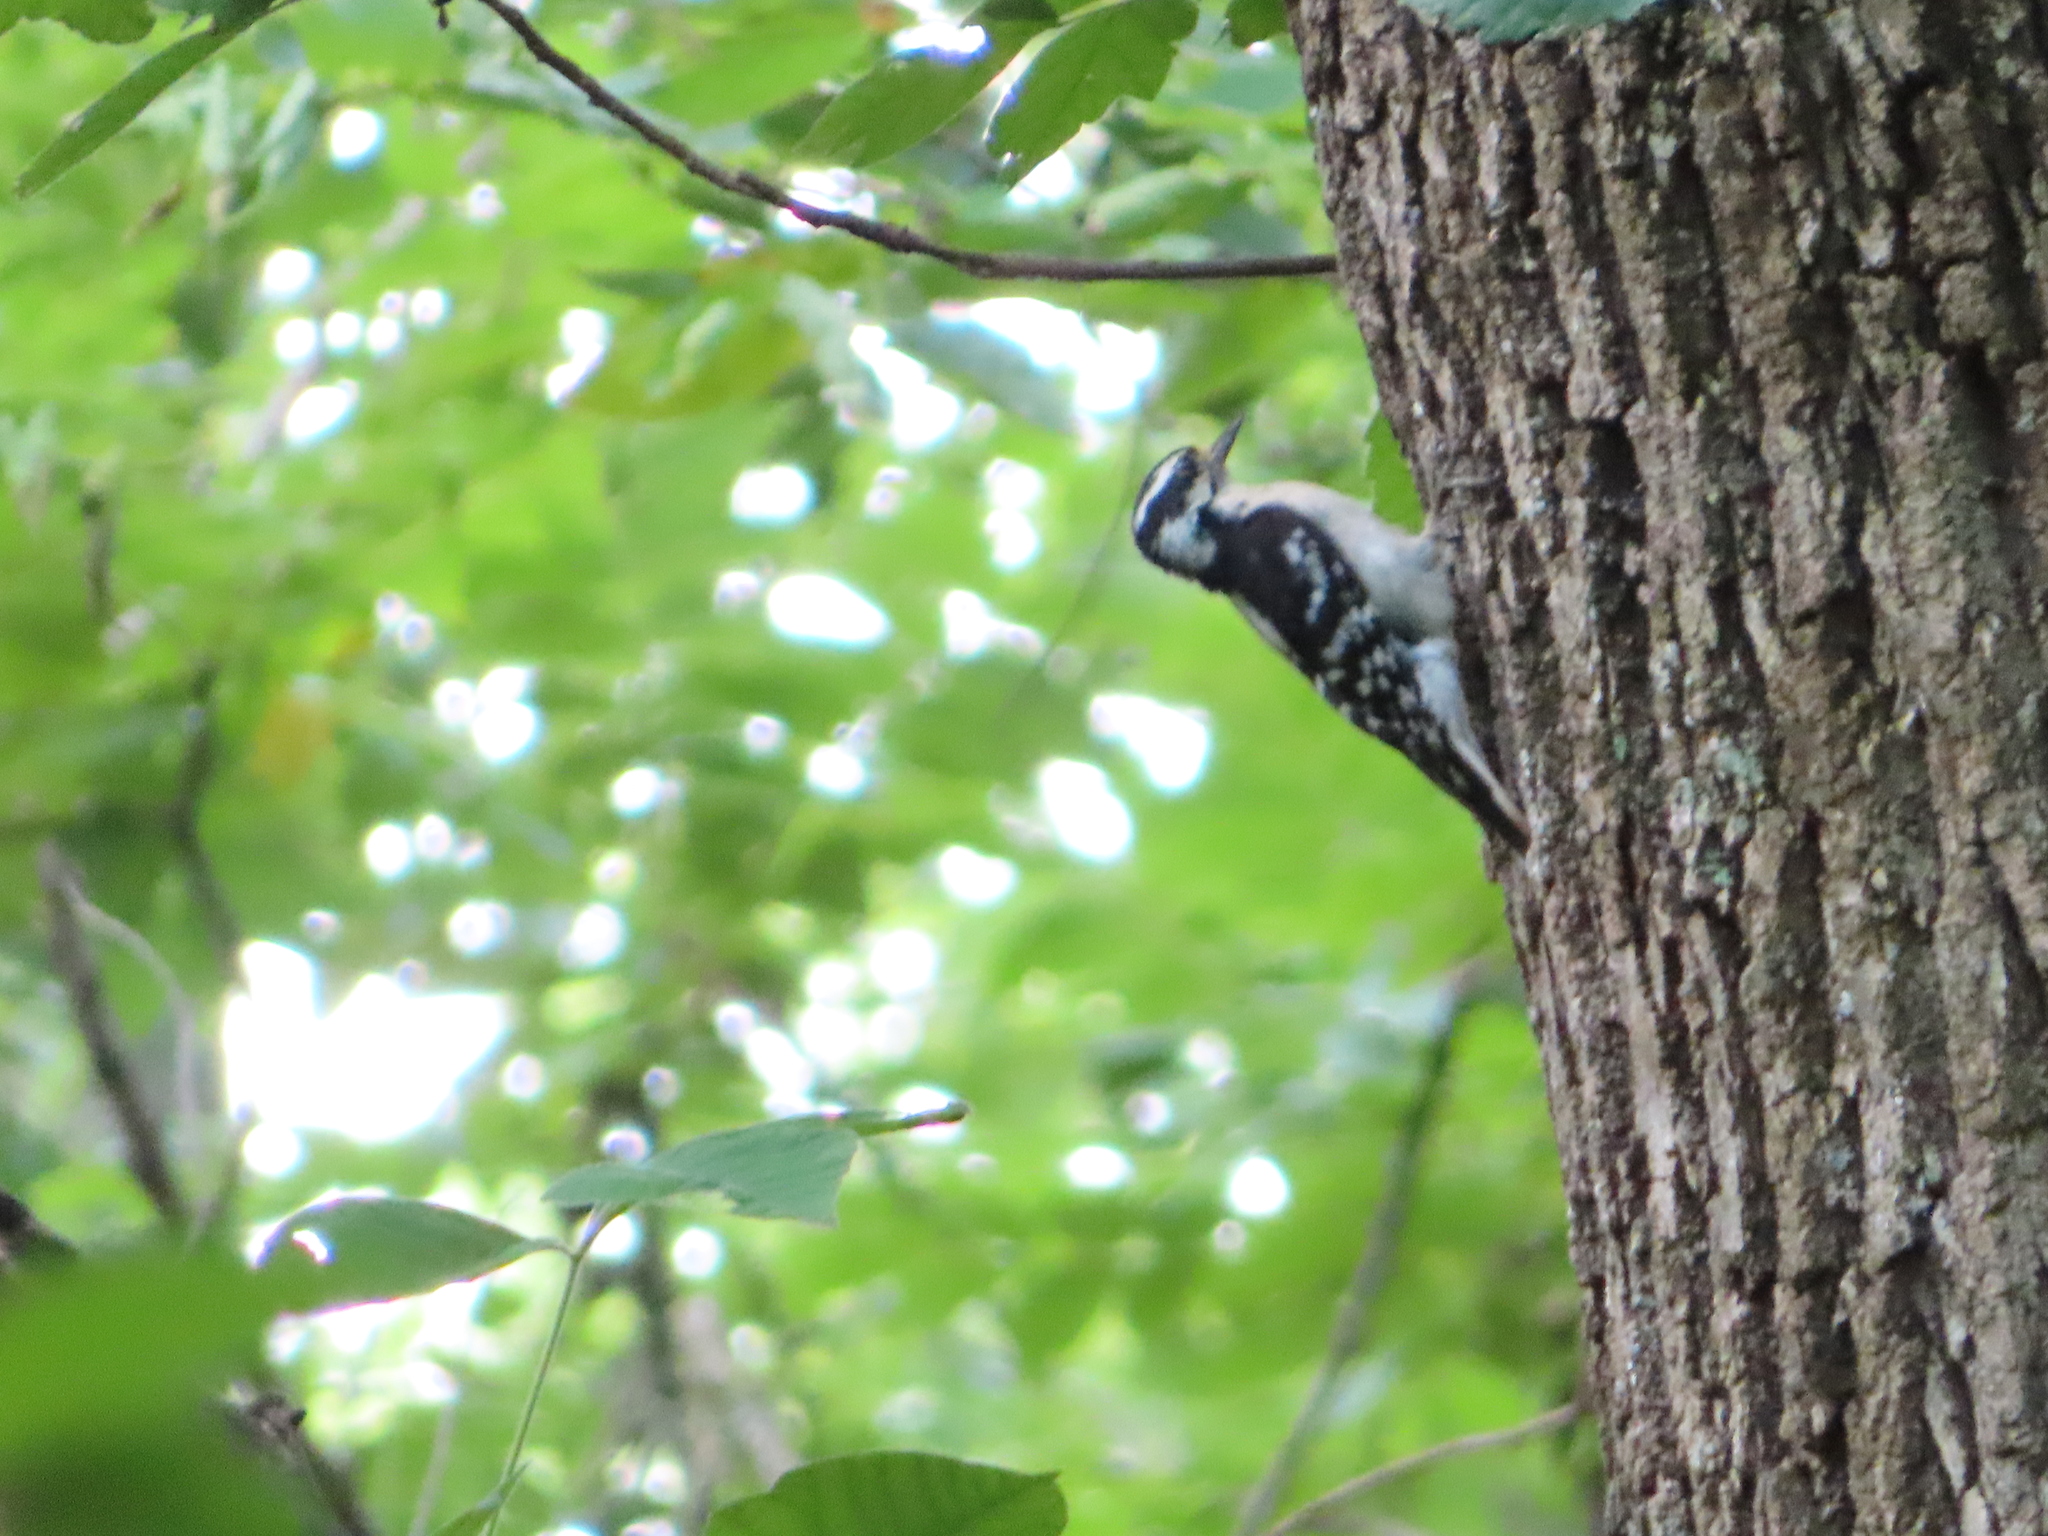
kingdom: Animalia
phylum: Chordata
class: Aves
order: Piciformes
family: Picidae
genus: Leuconotopicus
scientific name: Leuconotopicus villosus
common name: Hairy woodpecker
